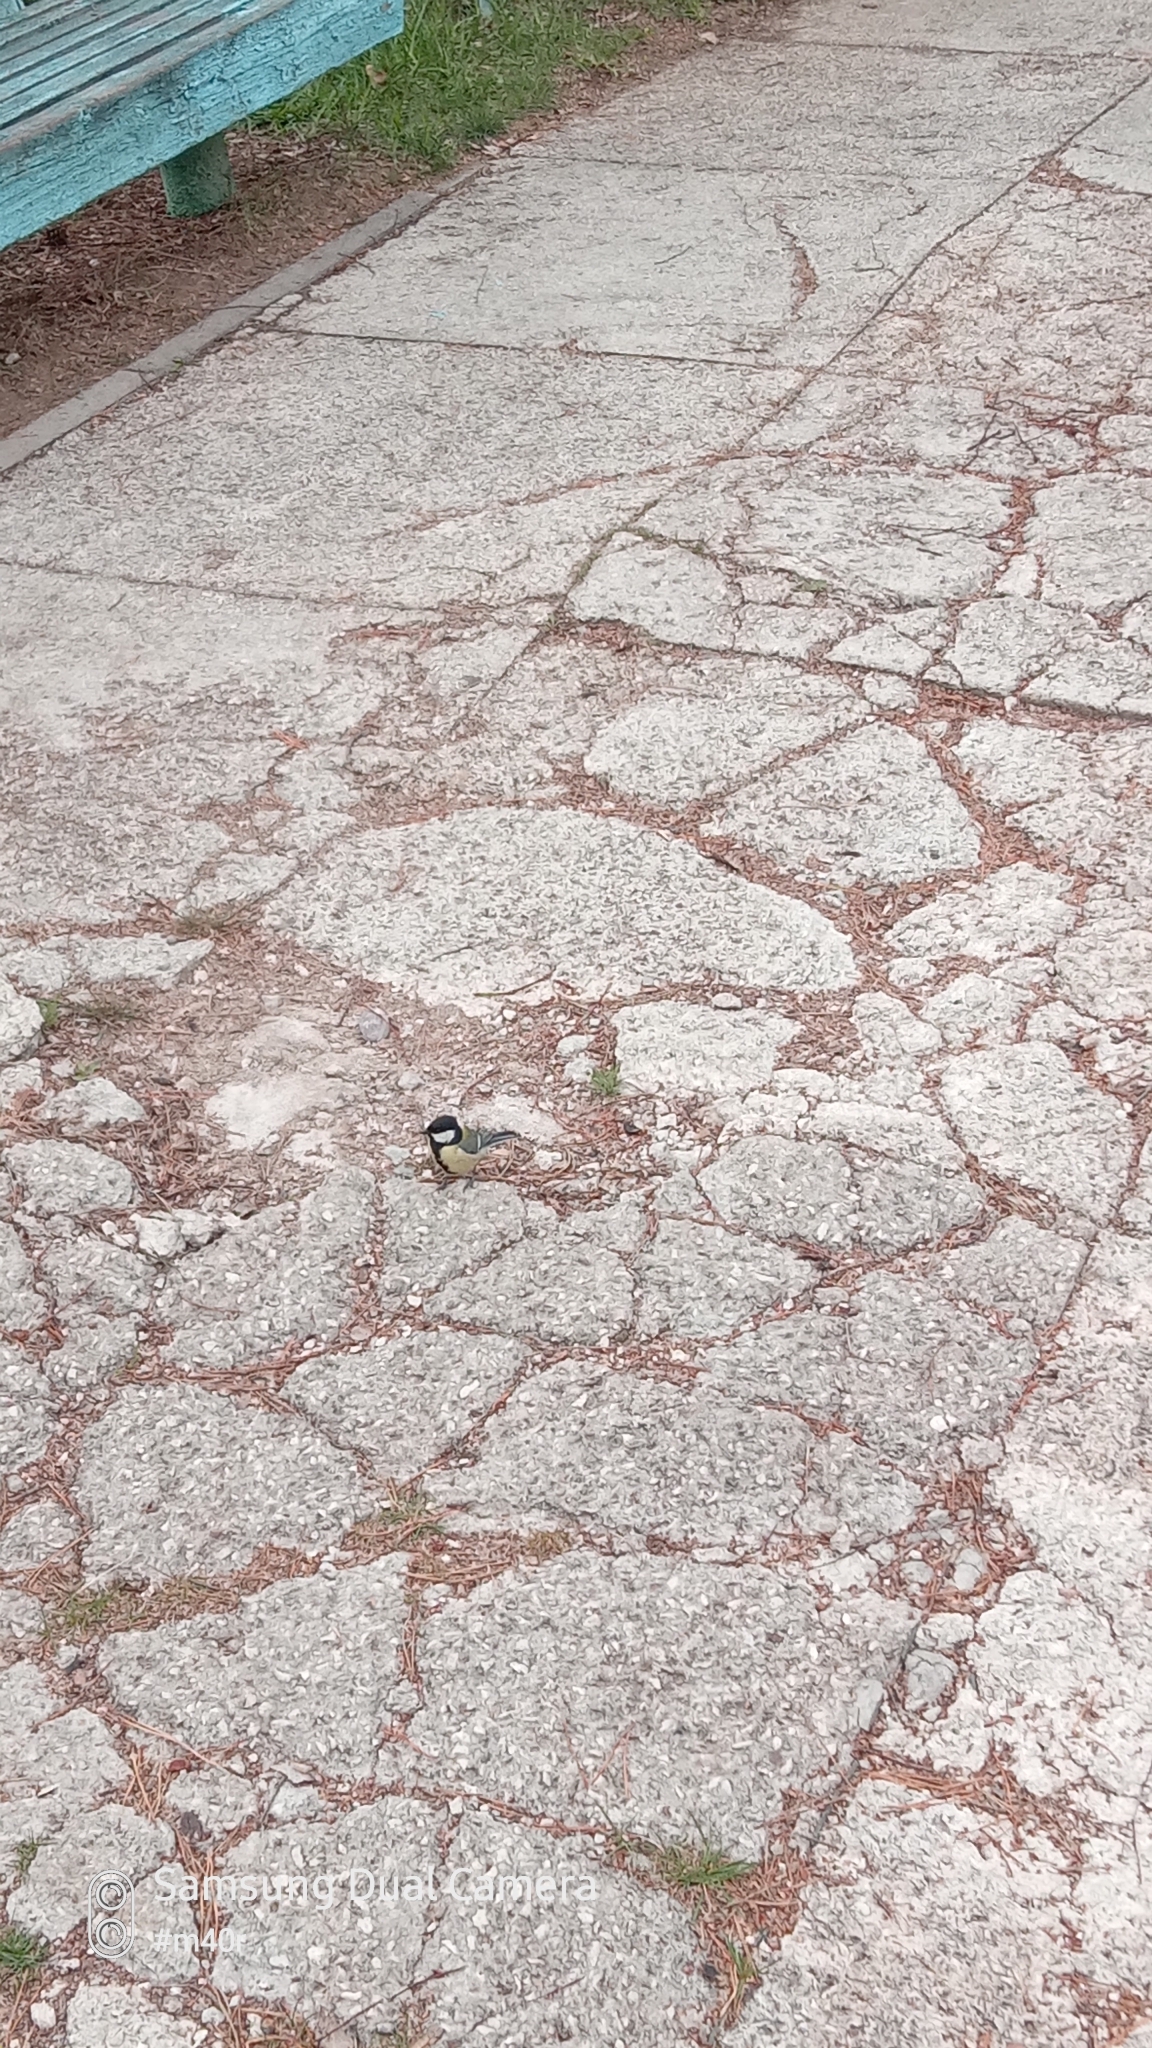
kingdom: Animalia
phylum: Chordata
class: Aves
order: Passeriformes
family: Paridae
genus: Parus
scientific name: Parus major
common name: Great tit
